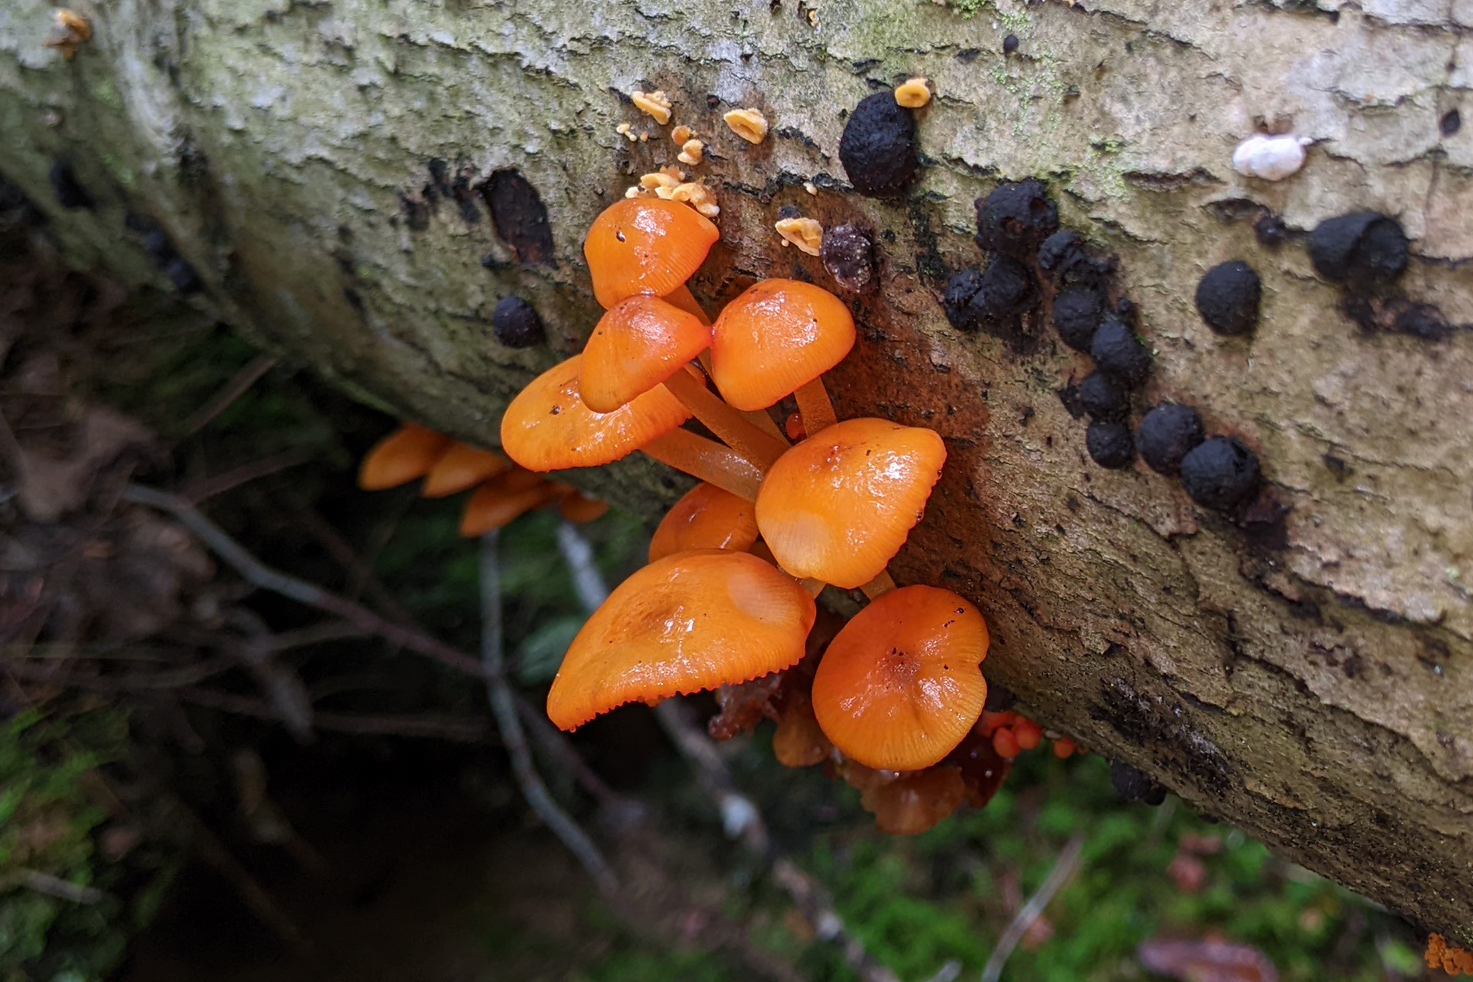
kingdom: Fungi
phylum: Basidiomycota
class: Agaricomycetes
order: Agaricales
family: Mycenaceae
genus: Mycena
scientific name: Mycena leaiana
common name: Orange mycena
